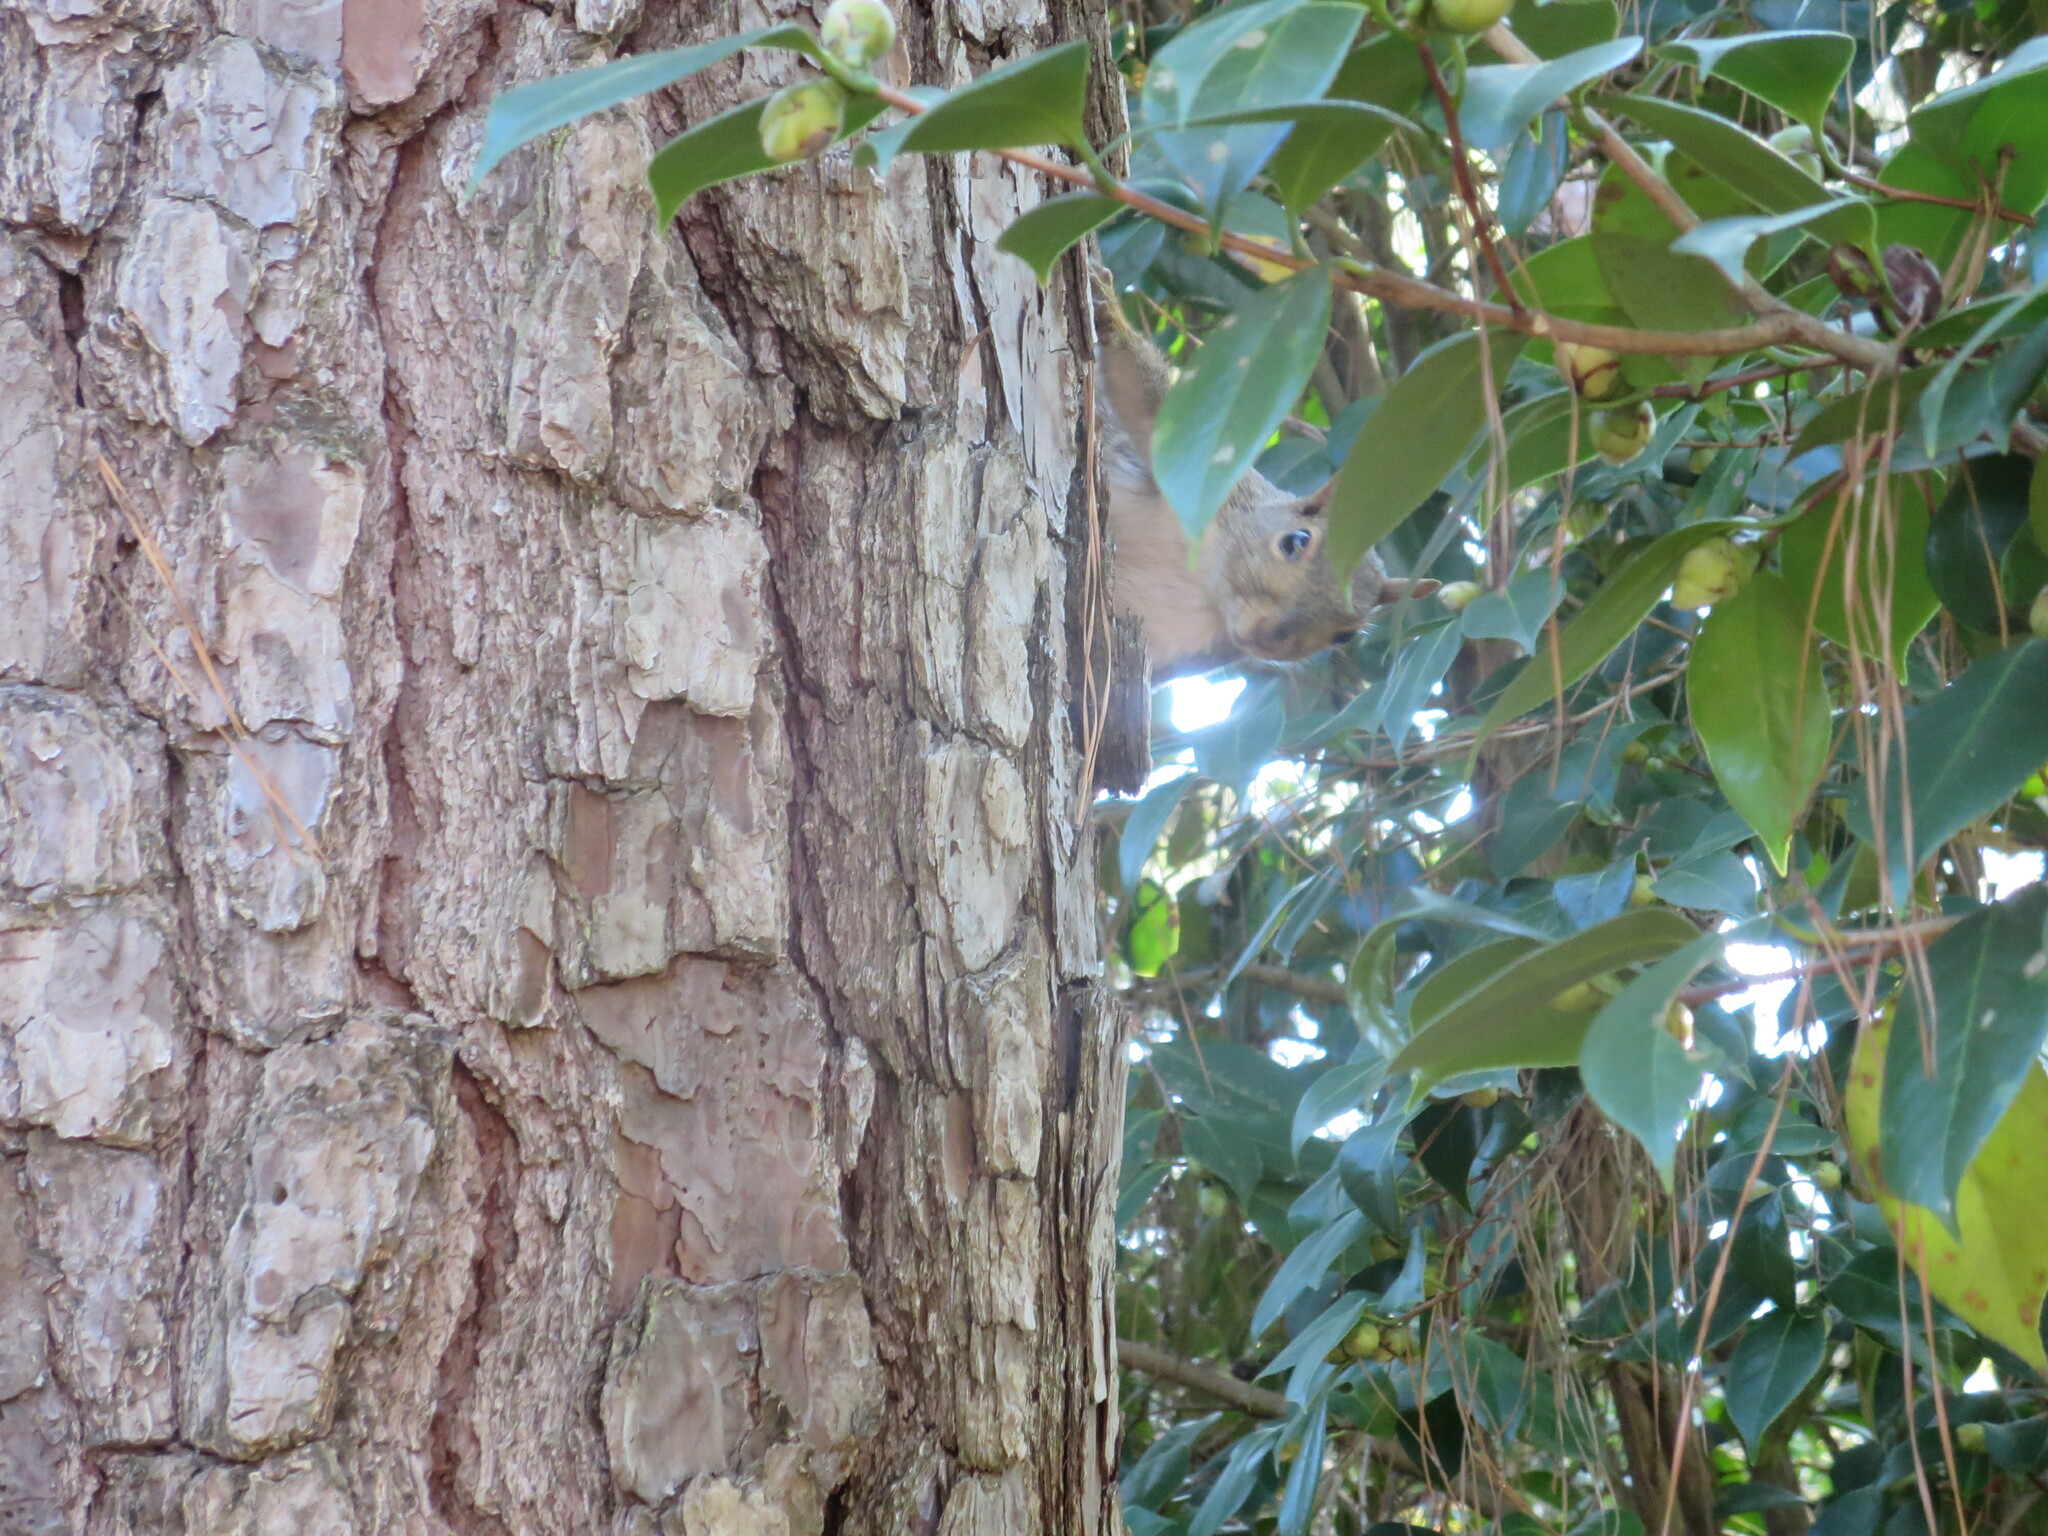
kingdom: Animalia
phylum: Chordata
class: Mammalia
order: Rodentia
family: Sciuridae
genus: Sciurus
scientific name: Sciurus carolinensis
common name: Eastern gray squirrel
